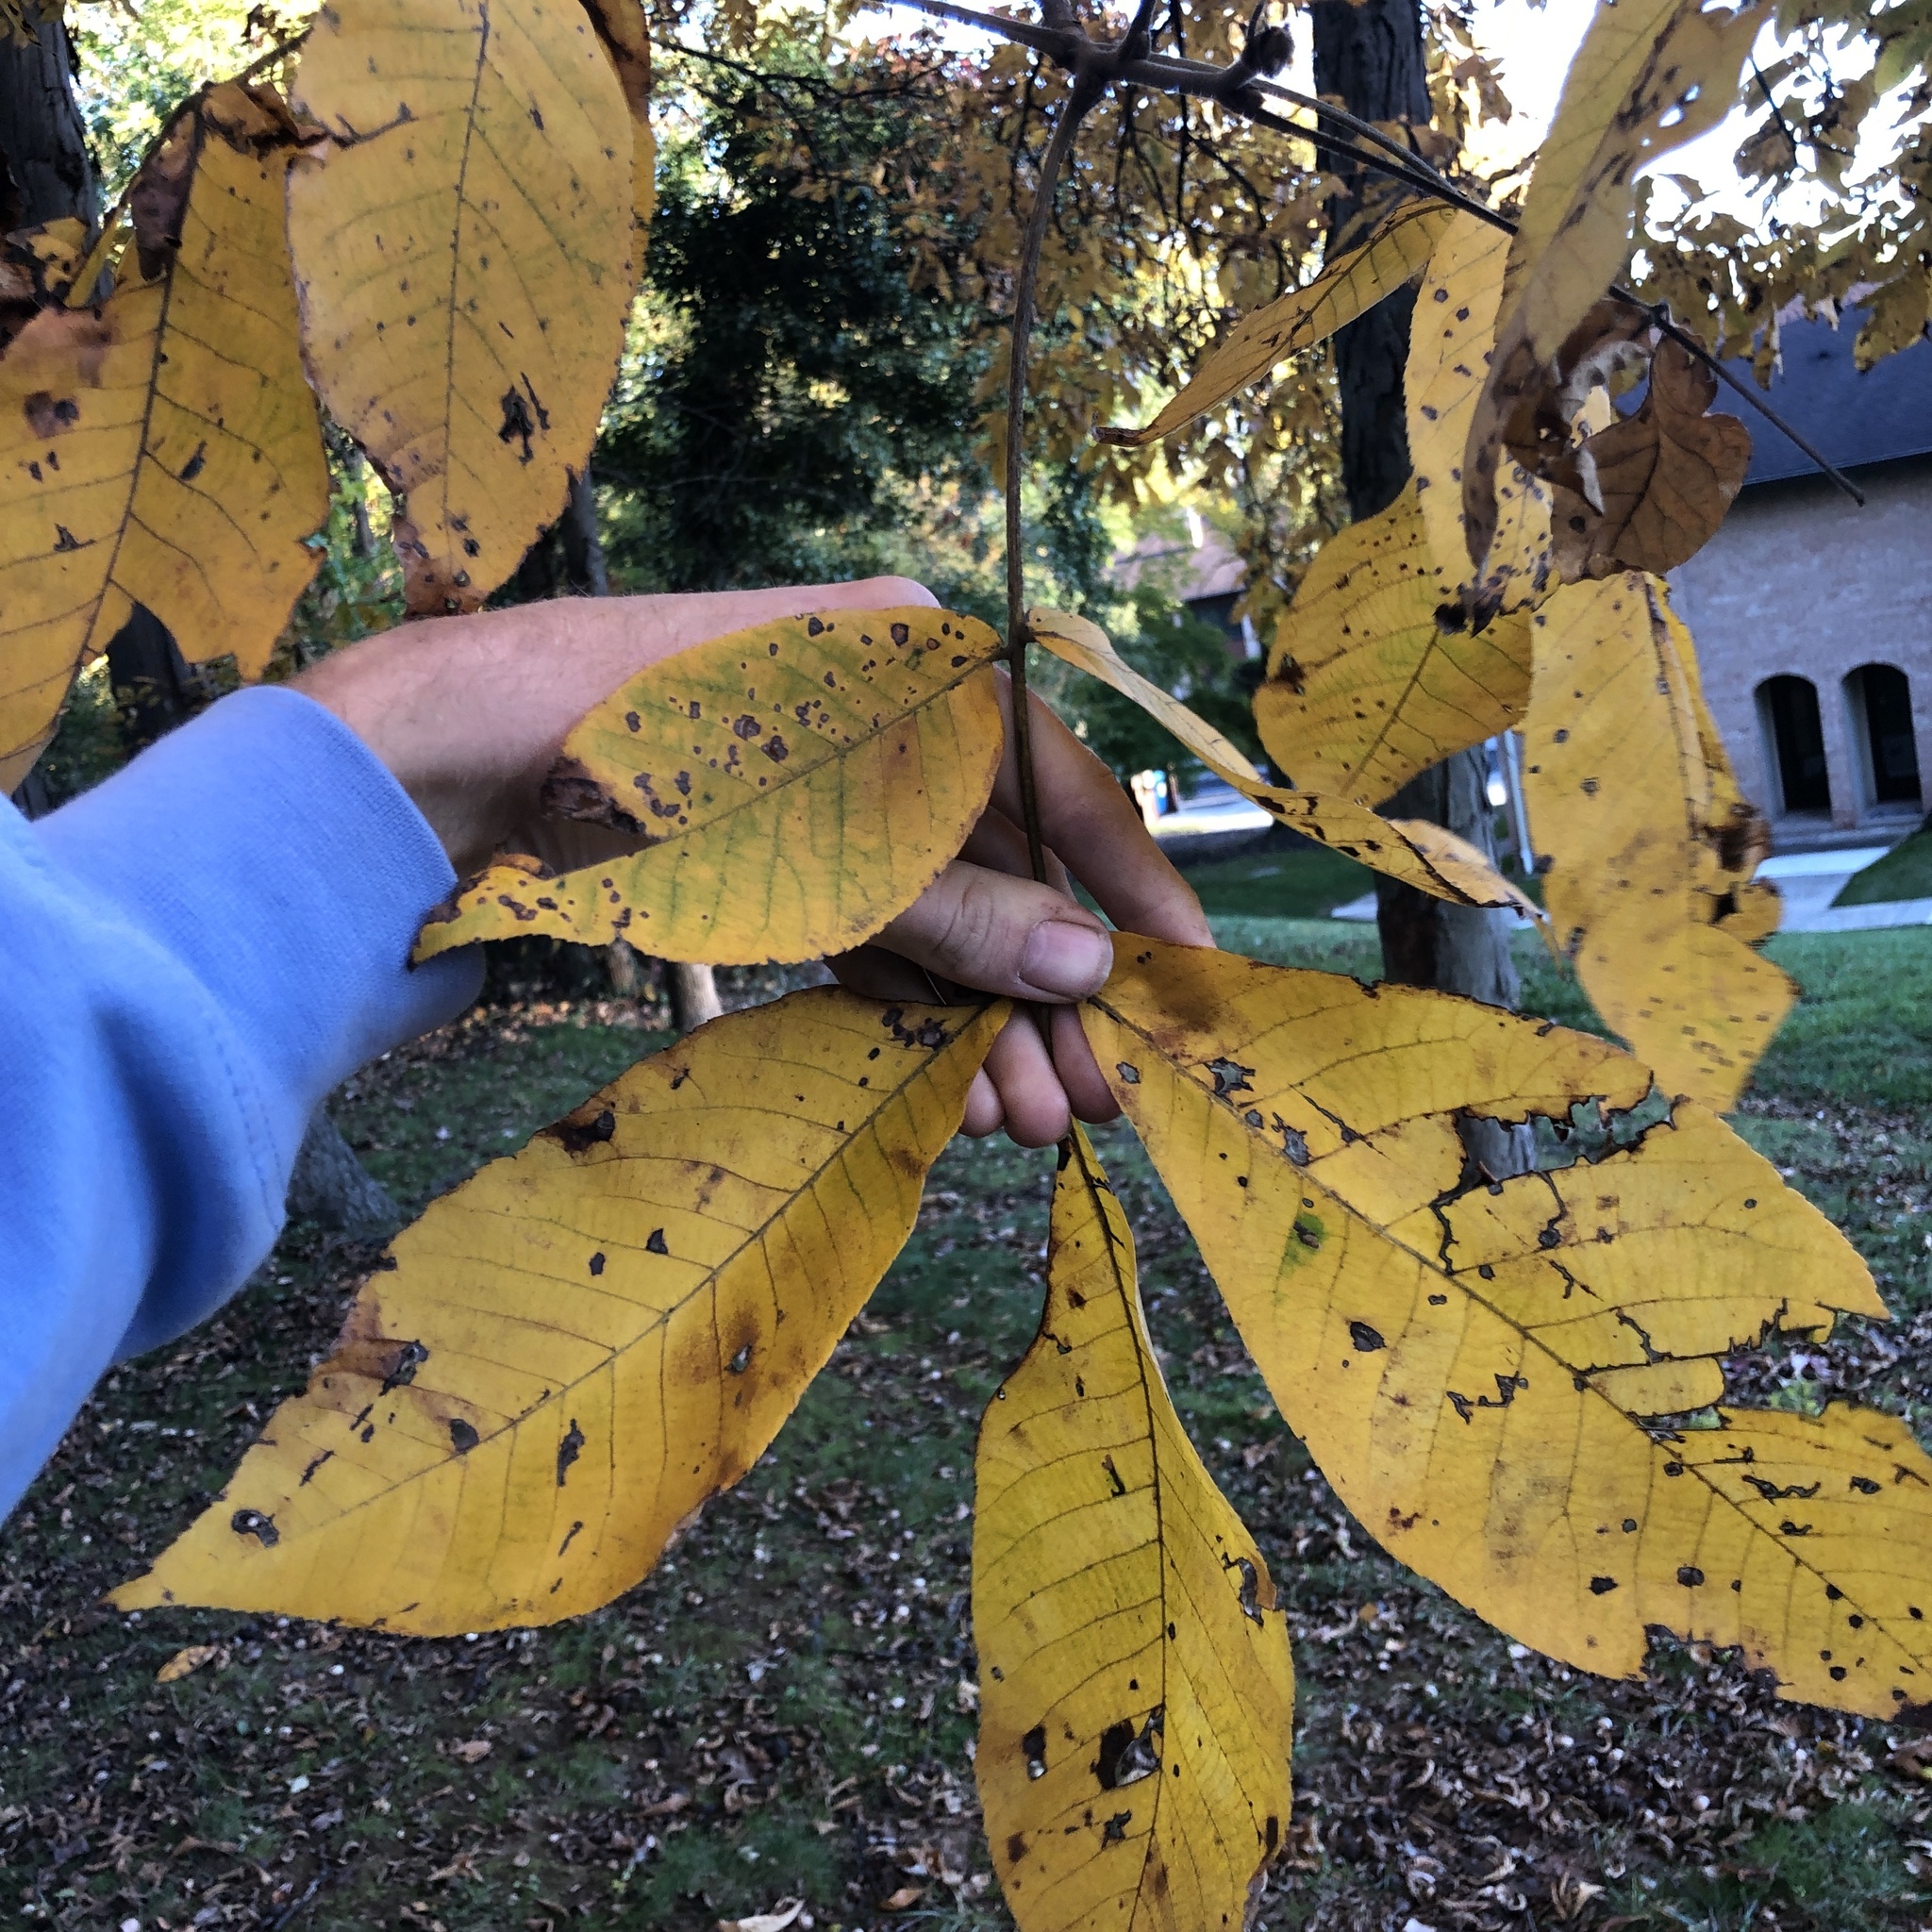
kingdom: Plantae
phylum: Tracheophyta
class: Magnoliopsida
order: Fagales
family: Juglandaceae
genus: Carya
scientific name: Carya ovata
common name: Shagbark hickory
